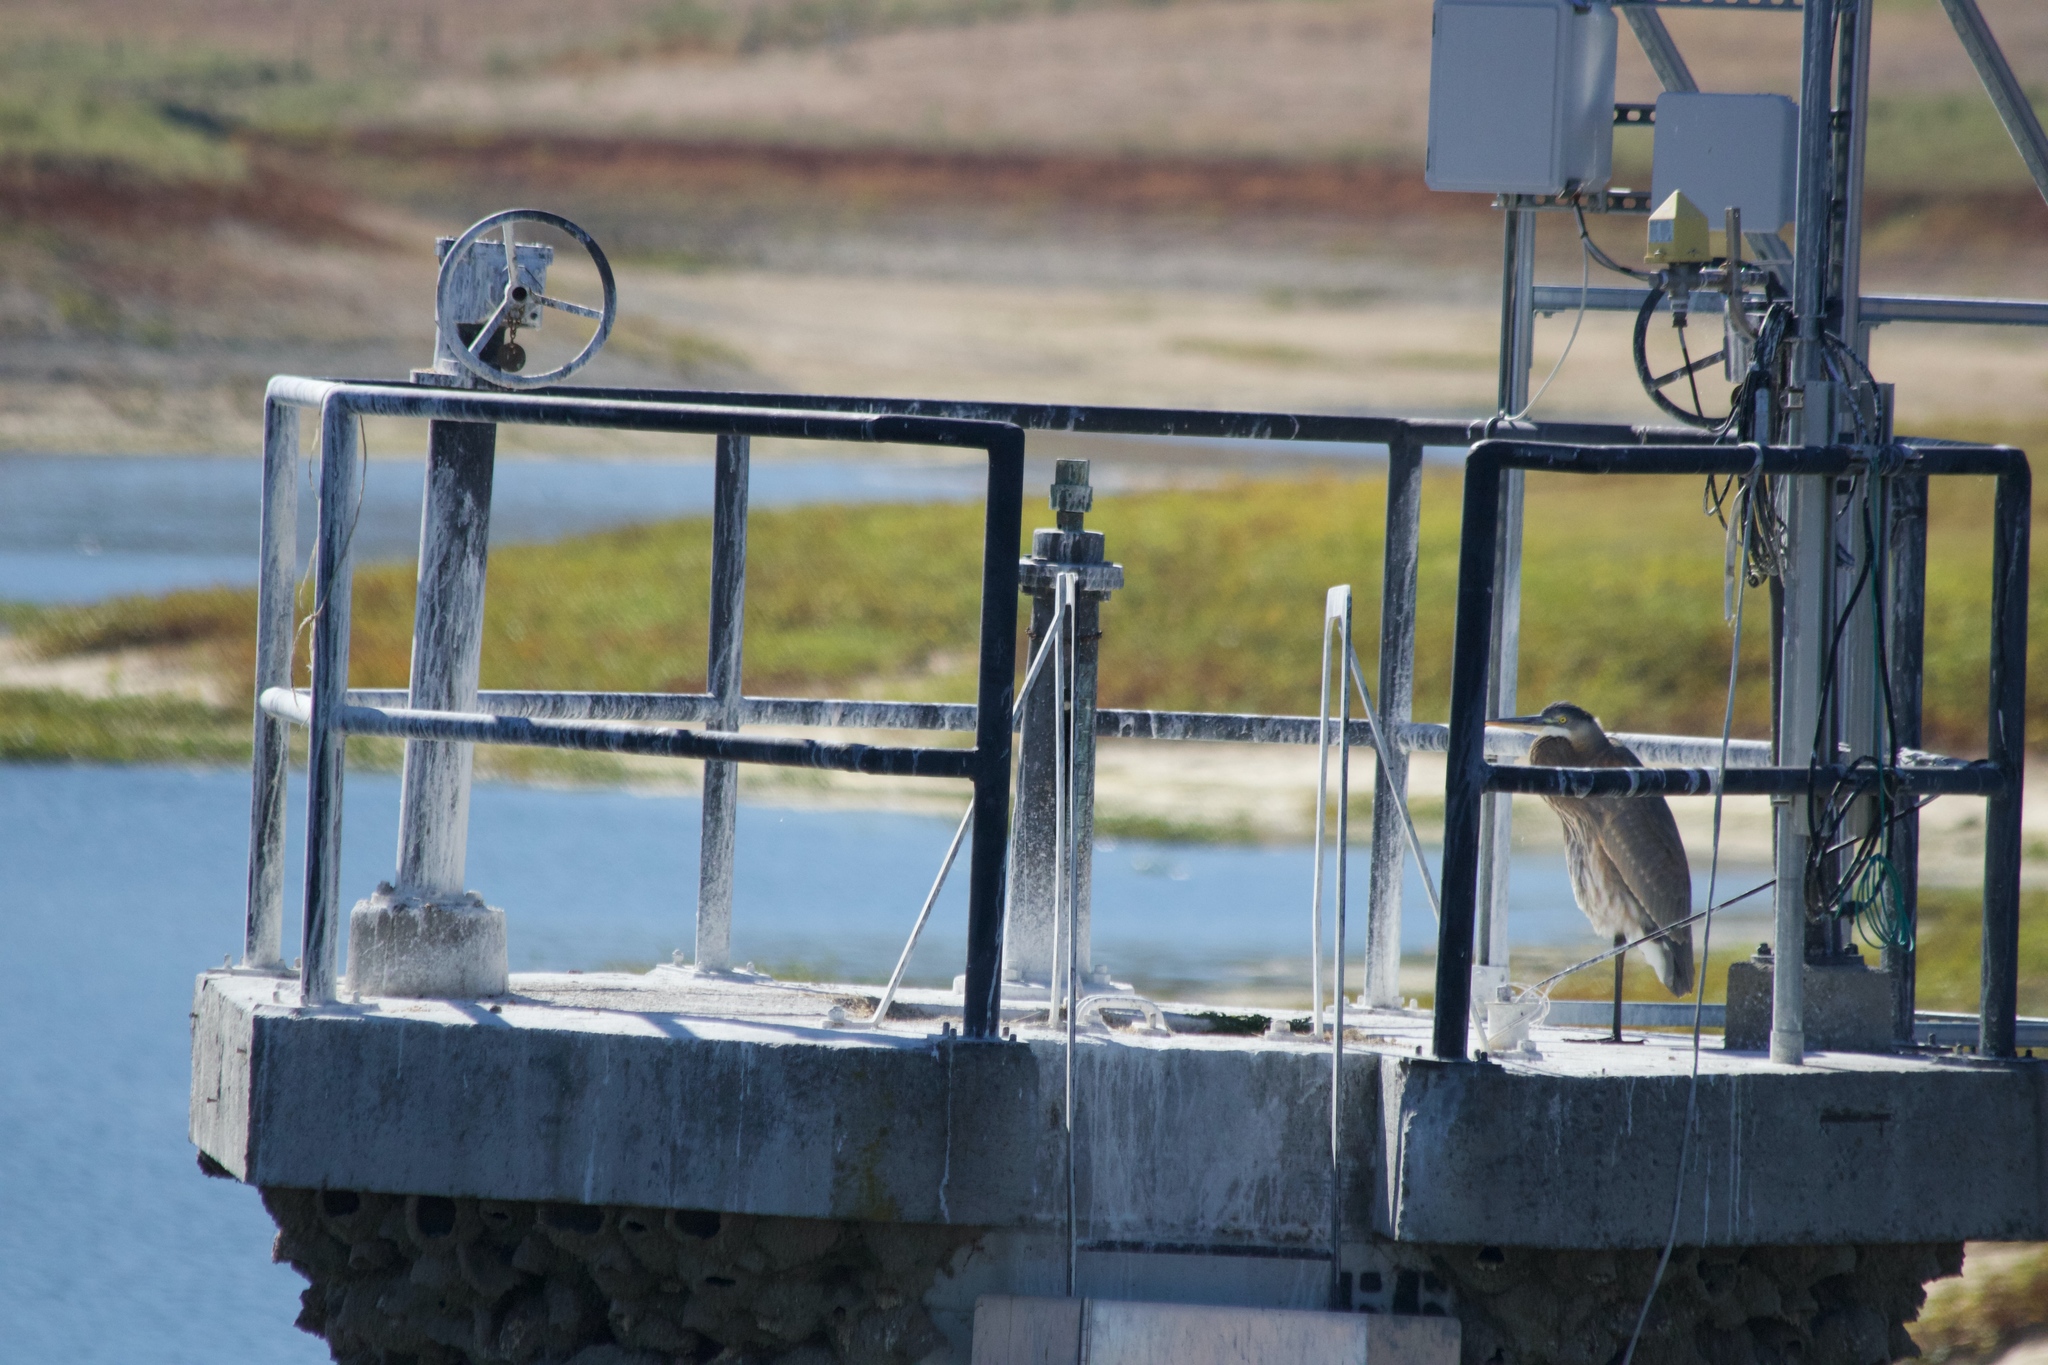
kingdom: Animalia
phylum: Chordata
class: Aves
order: Pelecaniformes
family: Ardeidae
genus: Ardea
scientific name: Ardea herodias
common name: Great blue heron
